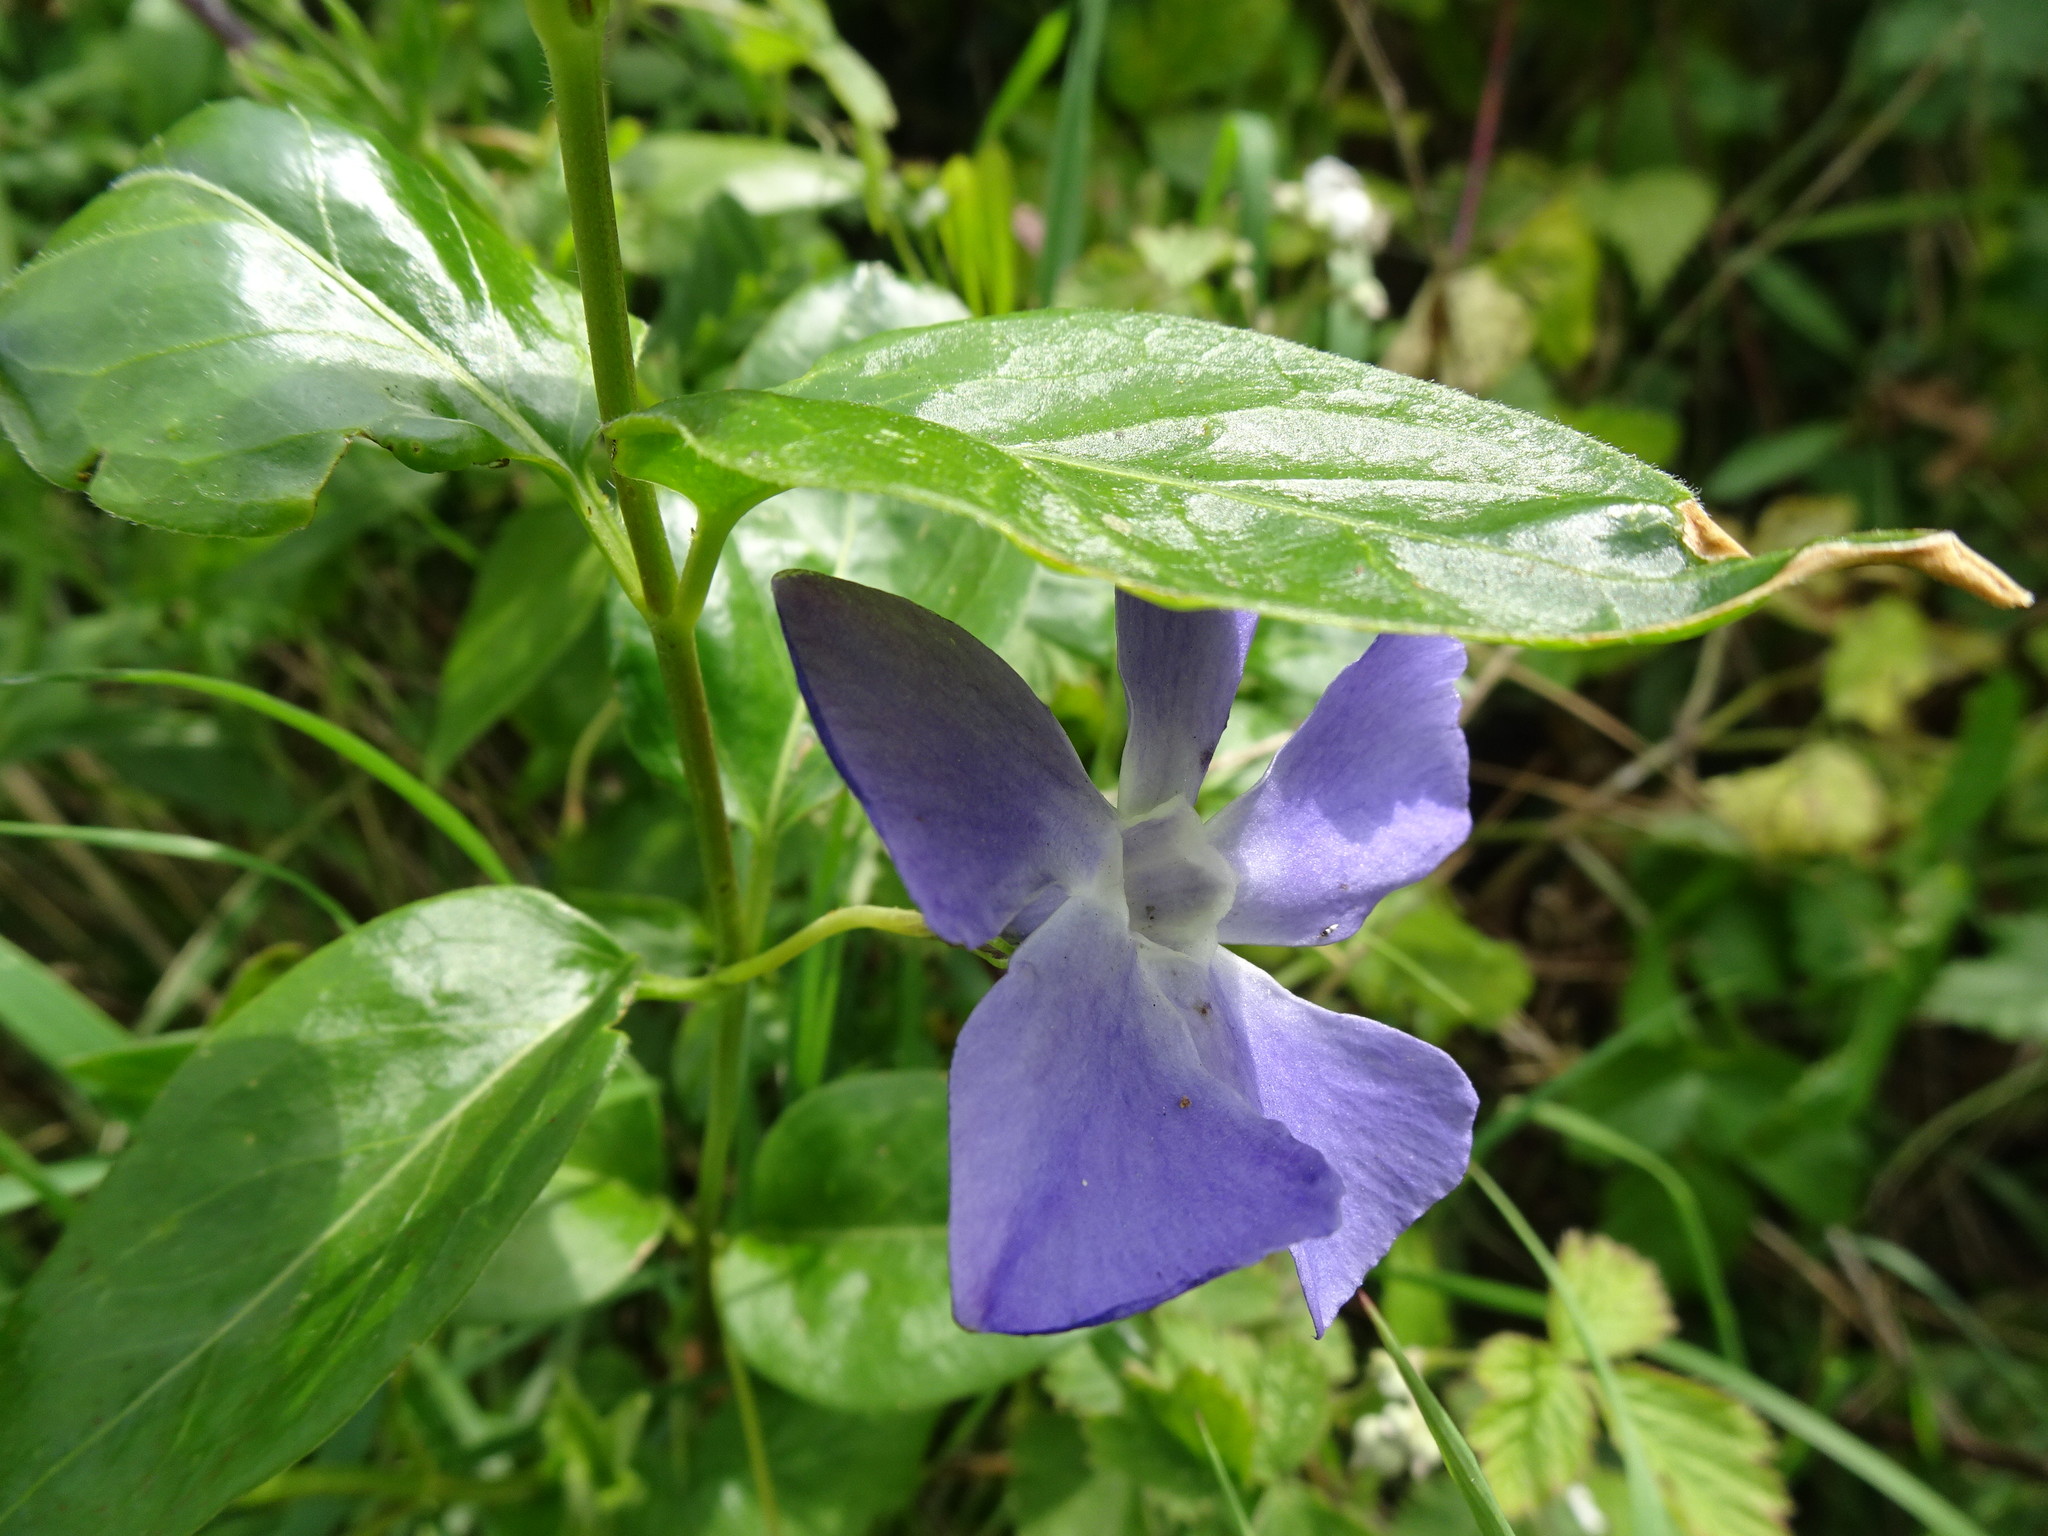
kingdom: Plantae
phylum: Tracheophyta
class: Magnoliopsida
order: Gentianales
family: Apocynaceae
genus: Vinca
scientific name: Vinca major
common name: Greater periwinkle
